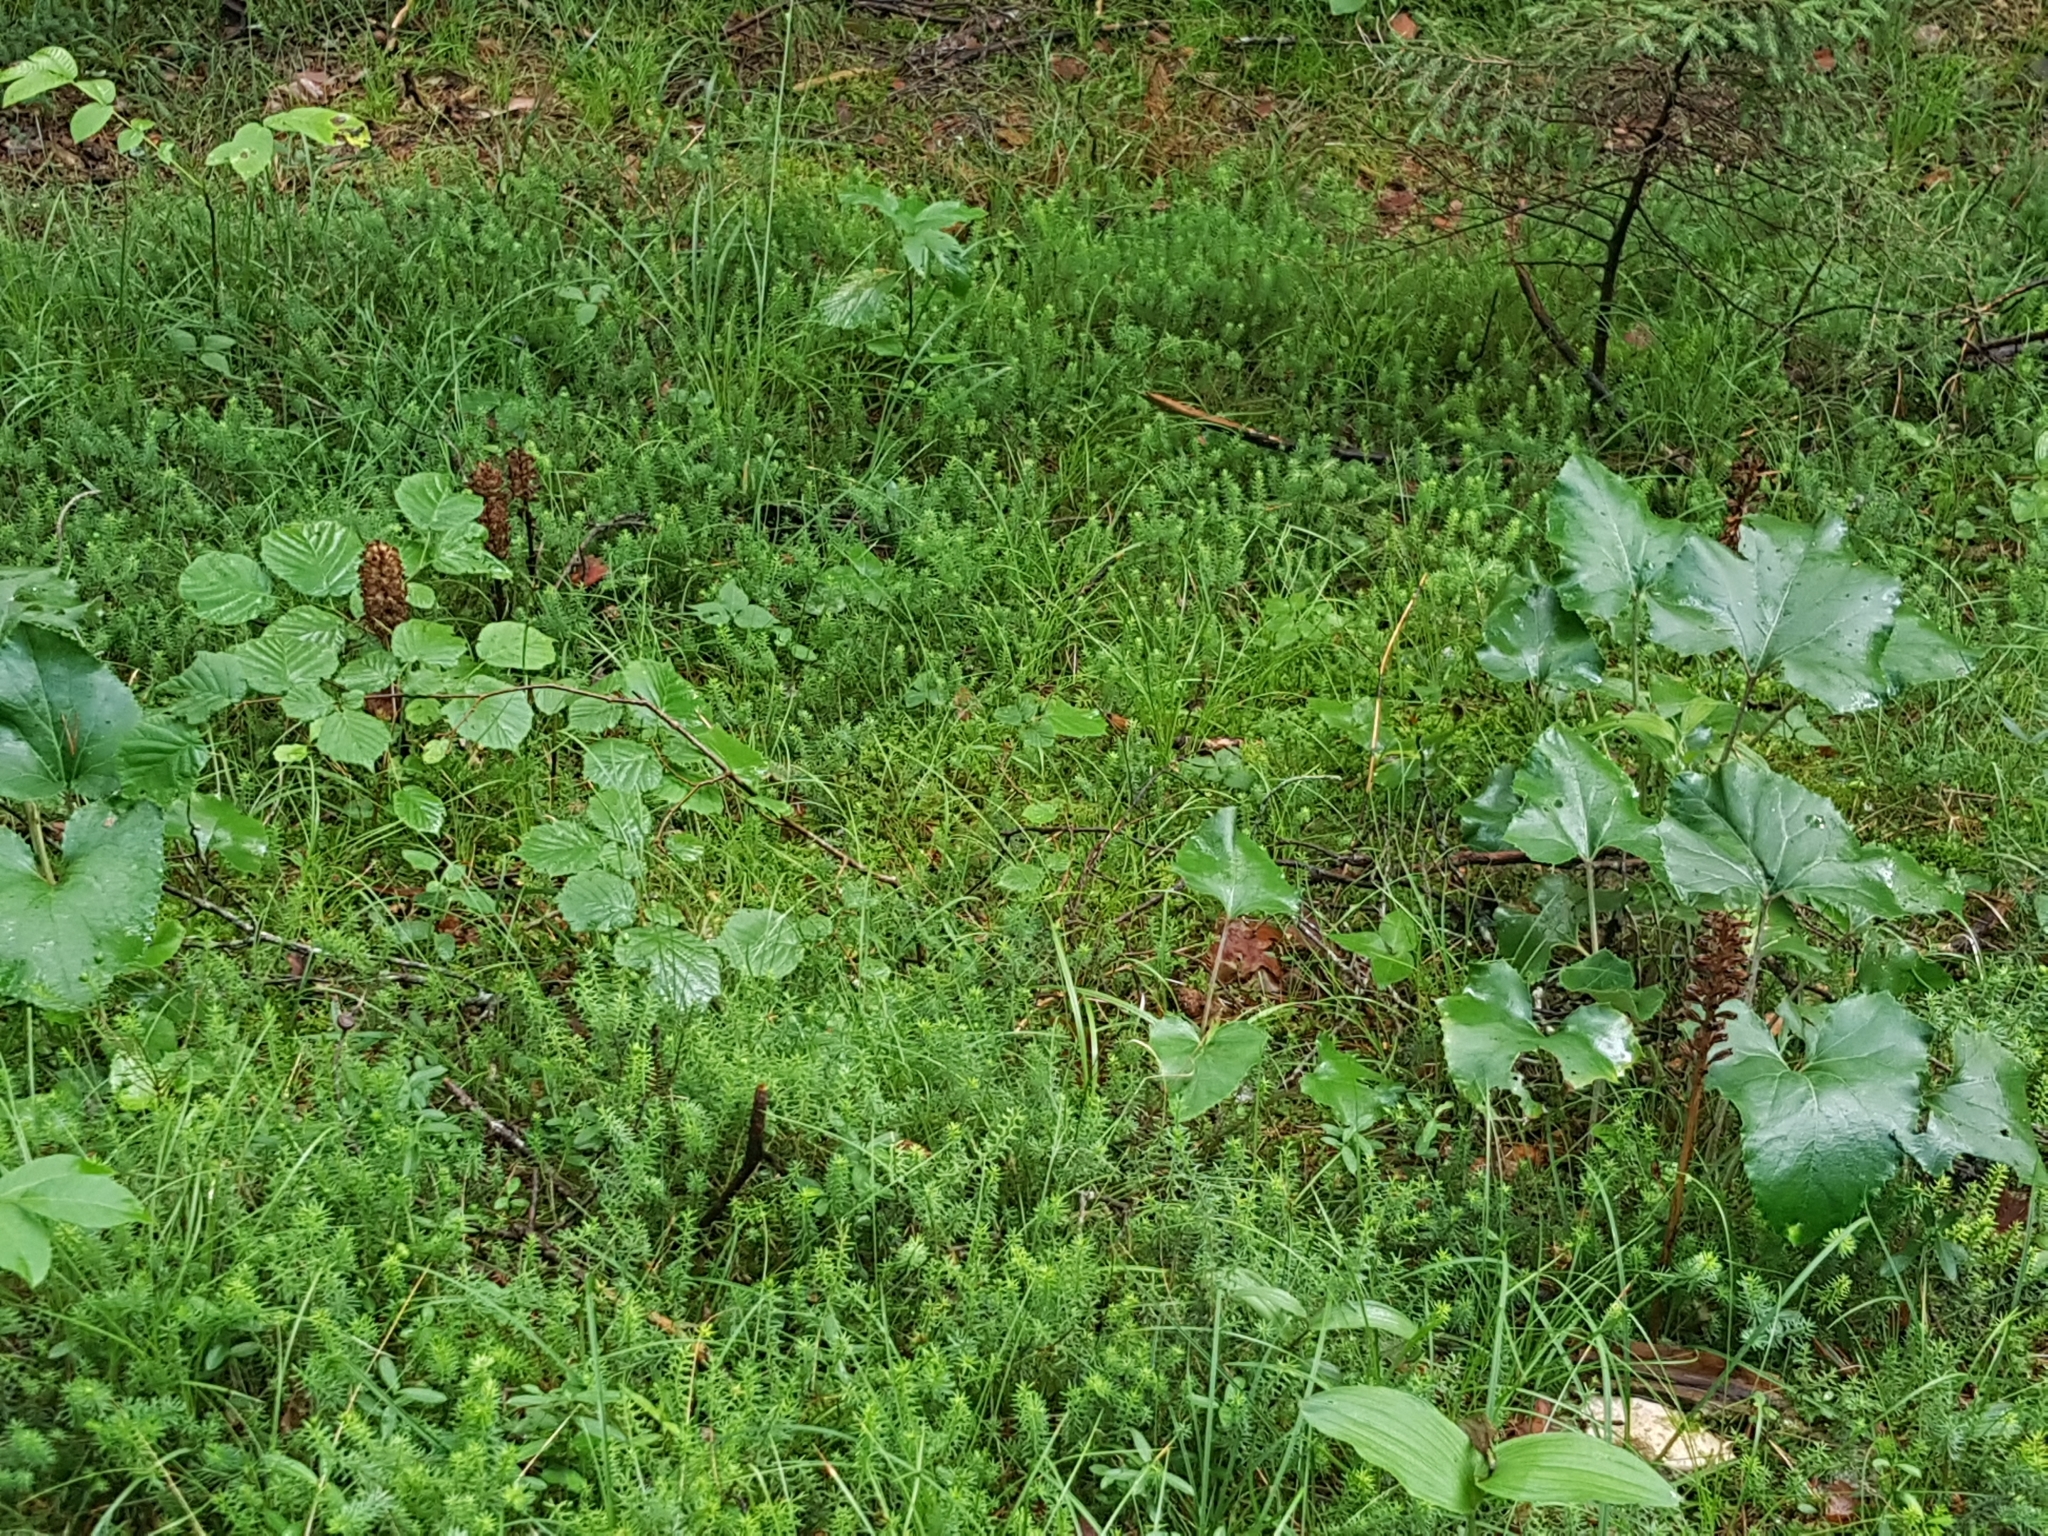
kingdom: Plantae
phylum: Tracheophyta
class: Liliopsida
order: Asparagales
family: Orchidaceae
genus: Neottia
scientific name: Neottia nidus-avis
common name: Bird's-nest orchid
